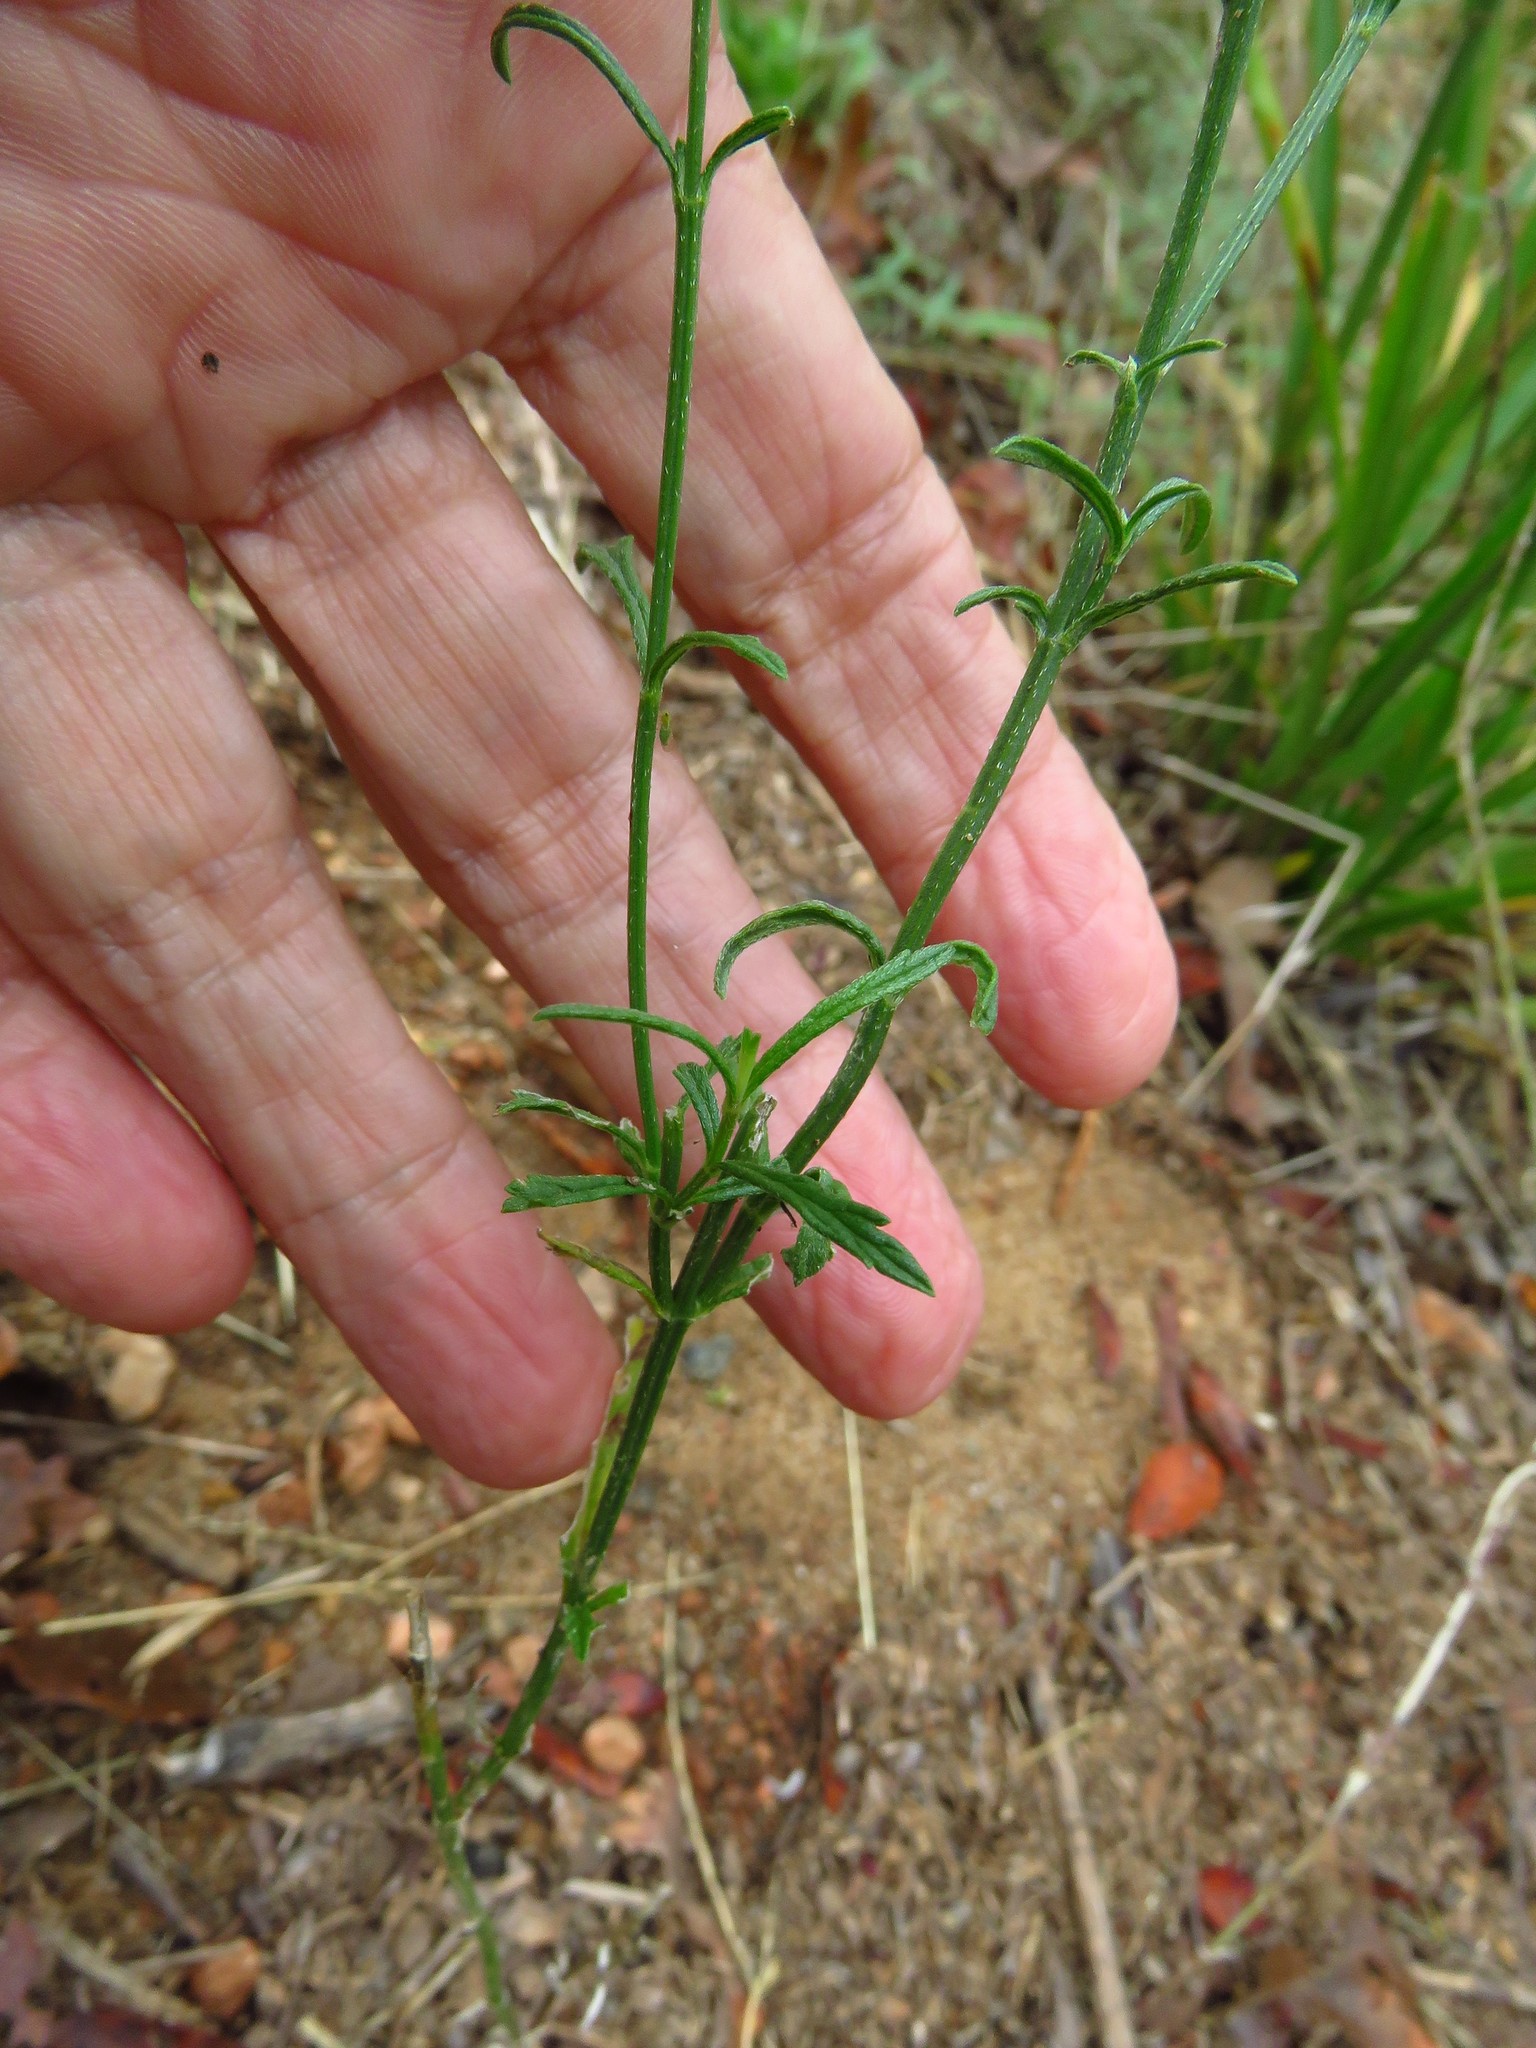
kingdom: Plantae
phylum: Tracheophyta
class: Magnoliopsida
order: Lamiales
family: Verbenaceae
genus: Verbena
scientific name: Verbena halei
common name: Texas vervain
